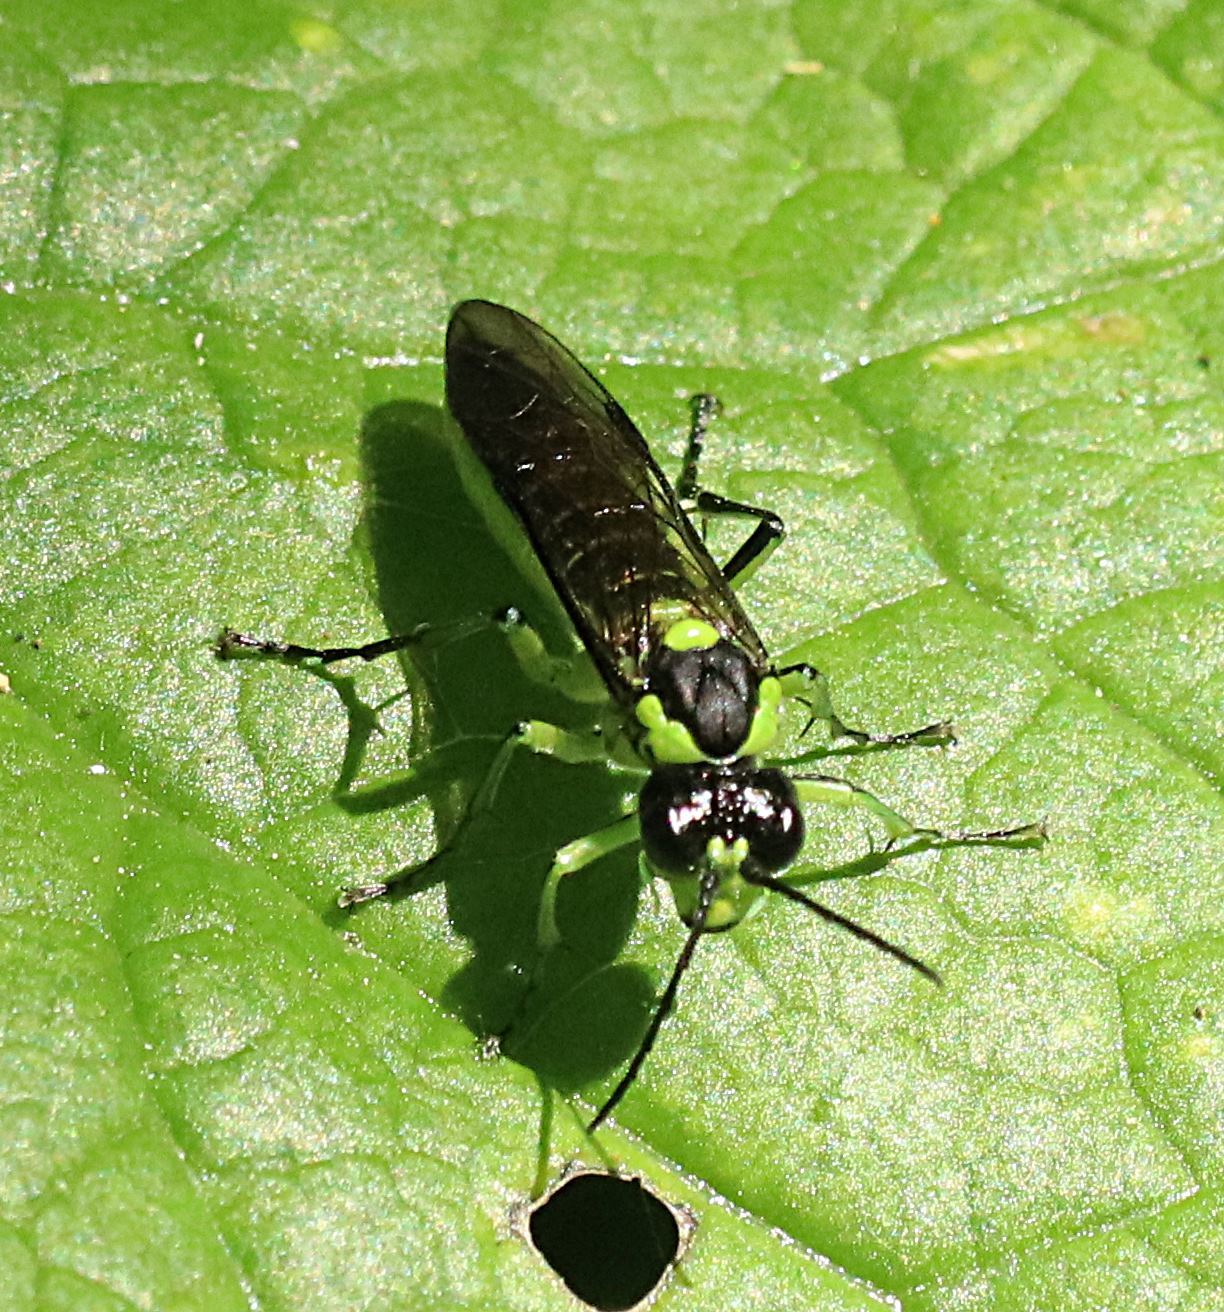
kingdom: Animalia
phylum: Arthropoda
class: Insecta
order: Hymenoptera
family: Tenthredinidae
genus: Tenthredo
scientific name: Tenthredo mesomela
